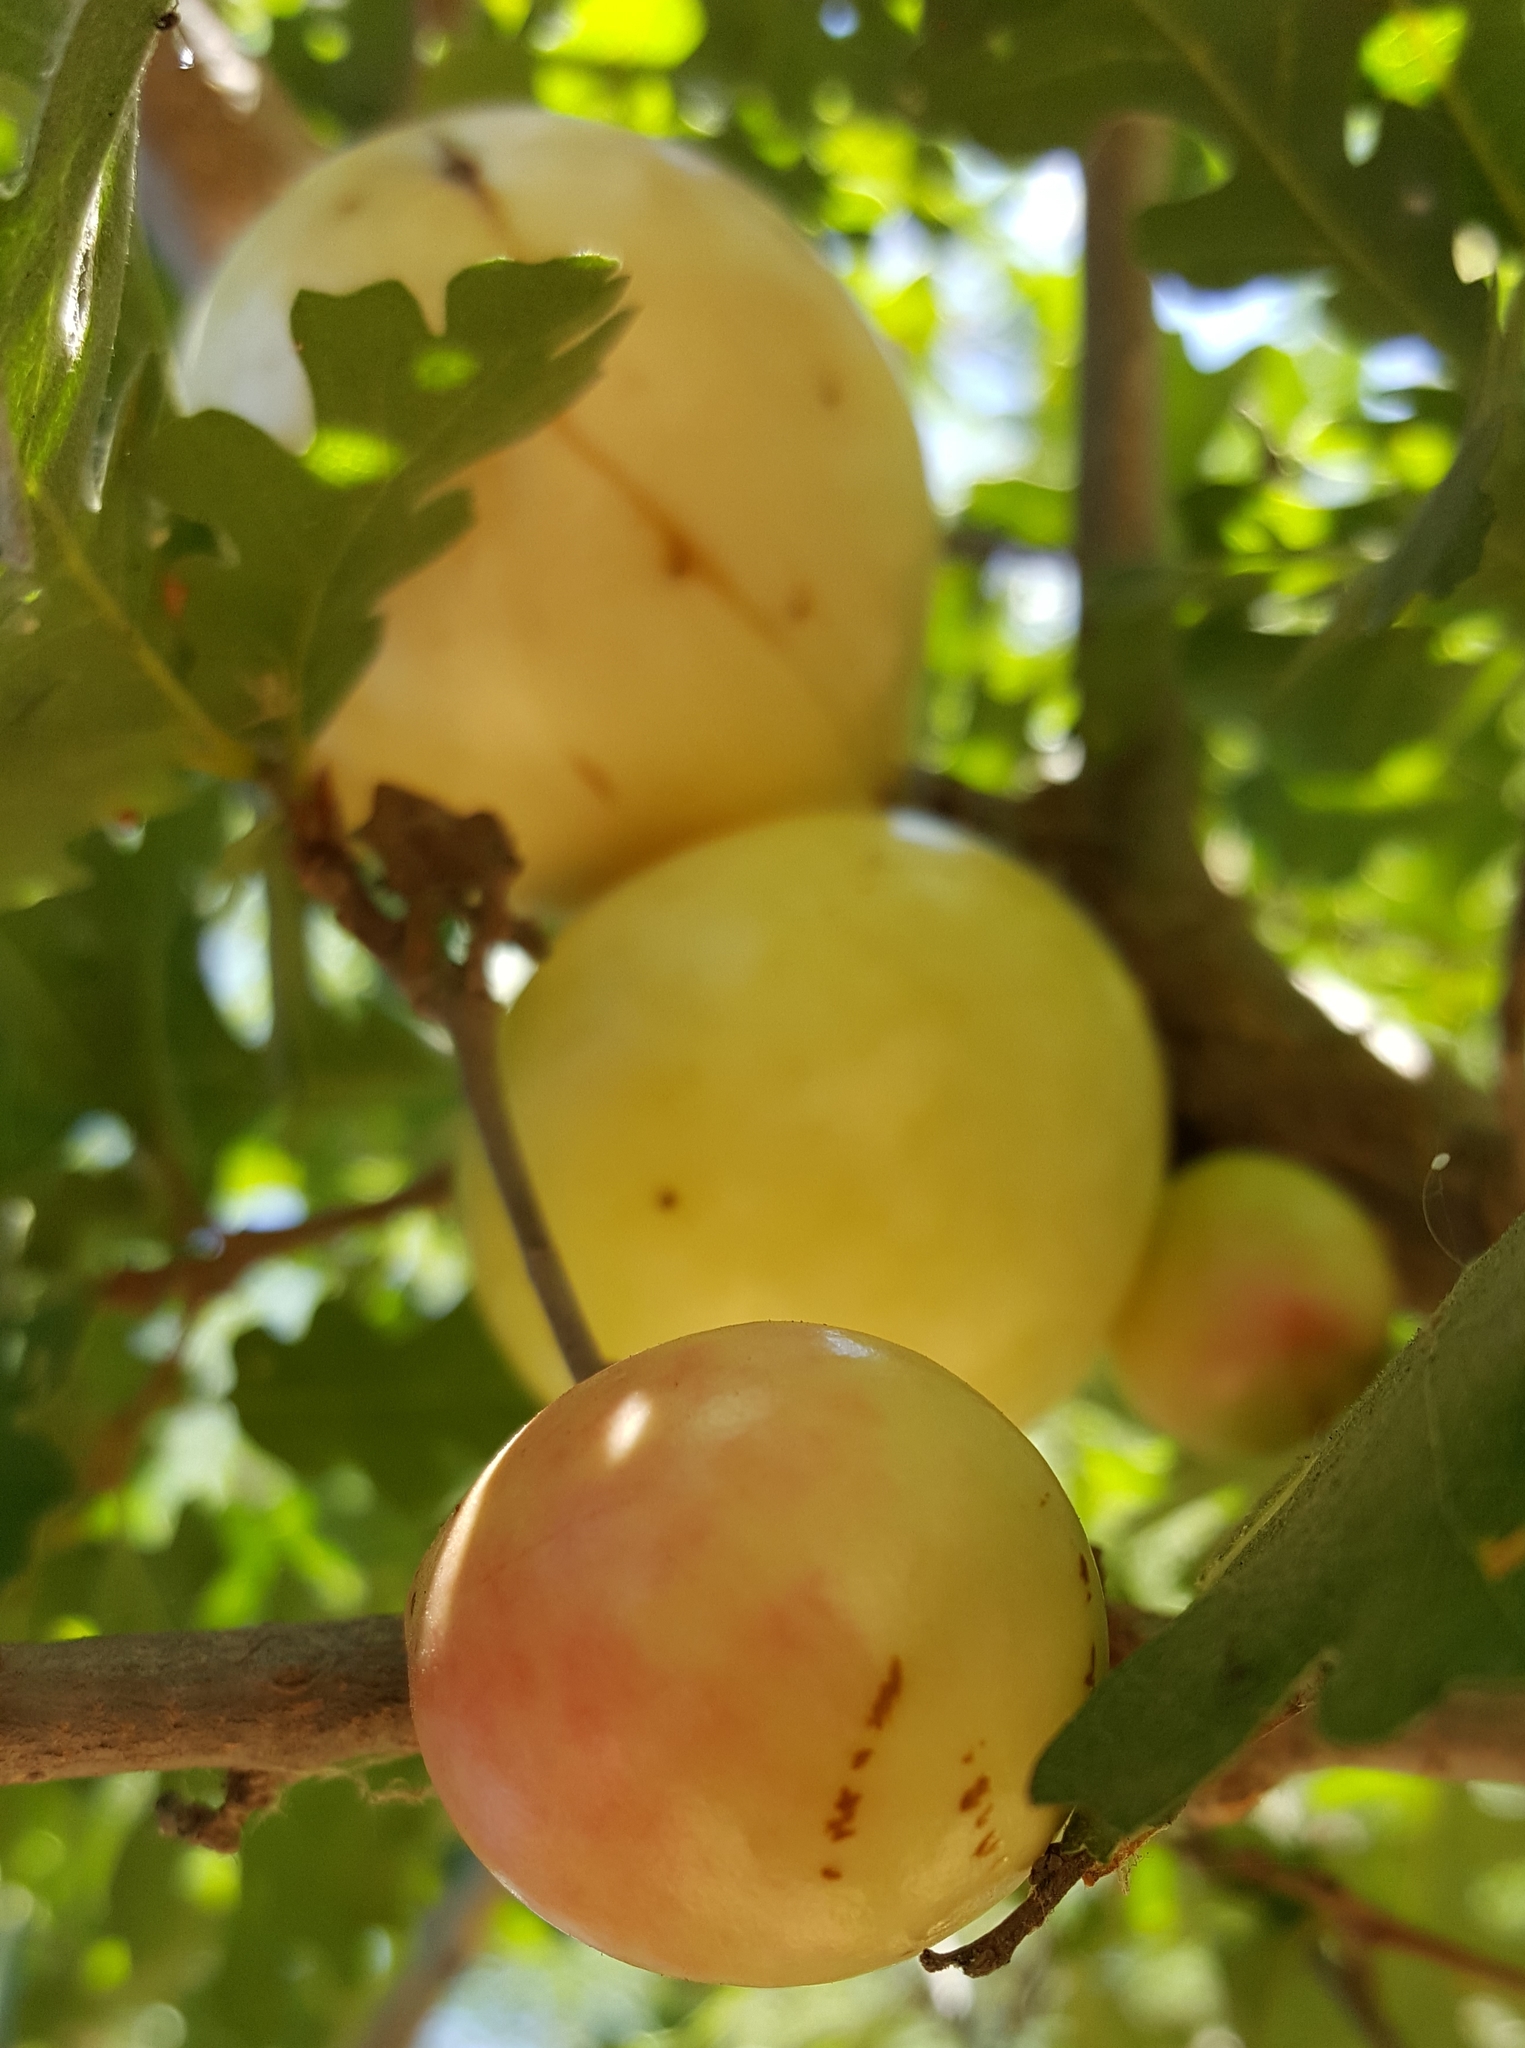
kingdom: Animalia
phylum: Arthropoda
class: Insecta
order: Hymenoptera
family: Cynipidae
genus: Andricus
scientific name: Andricus quercuscalifornicus
